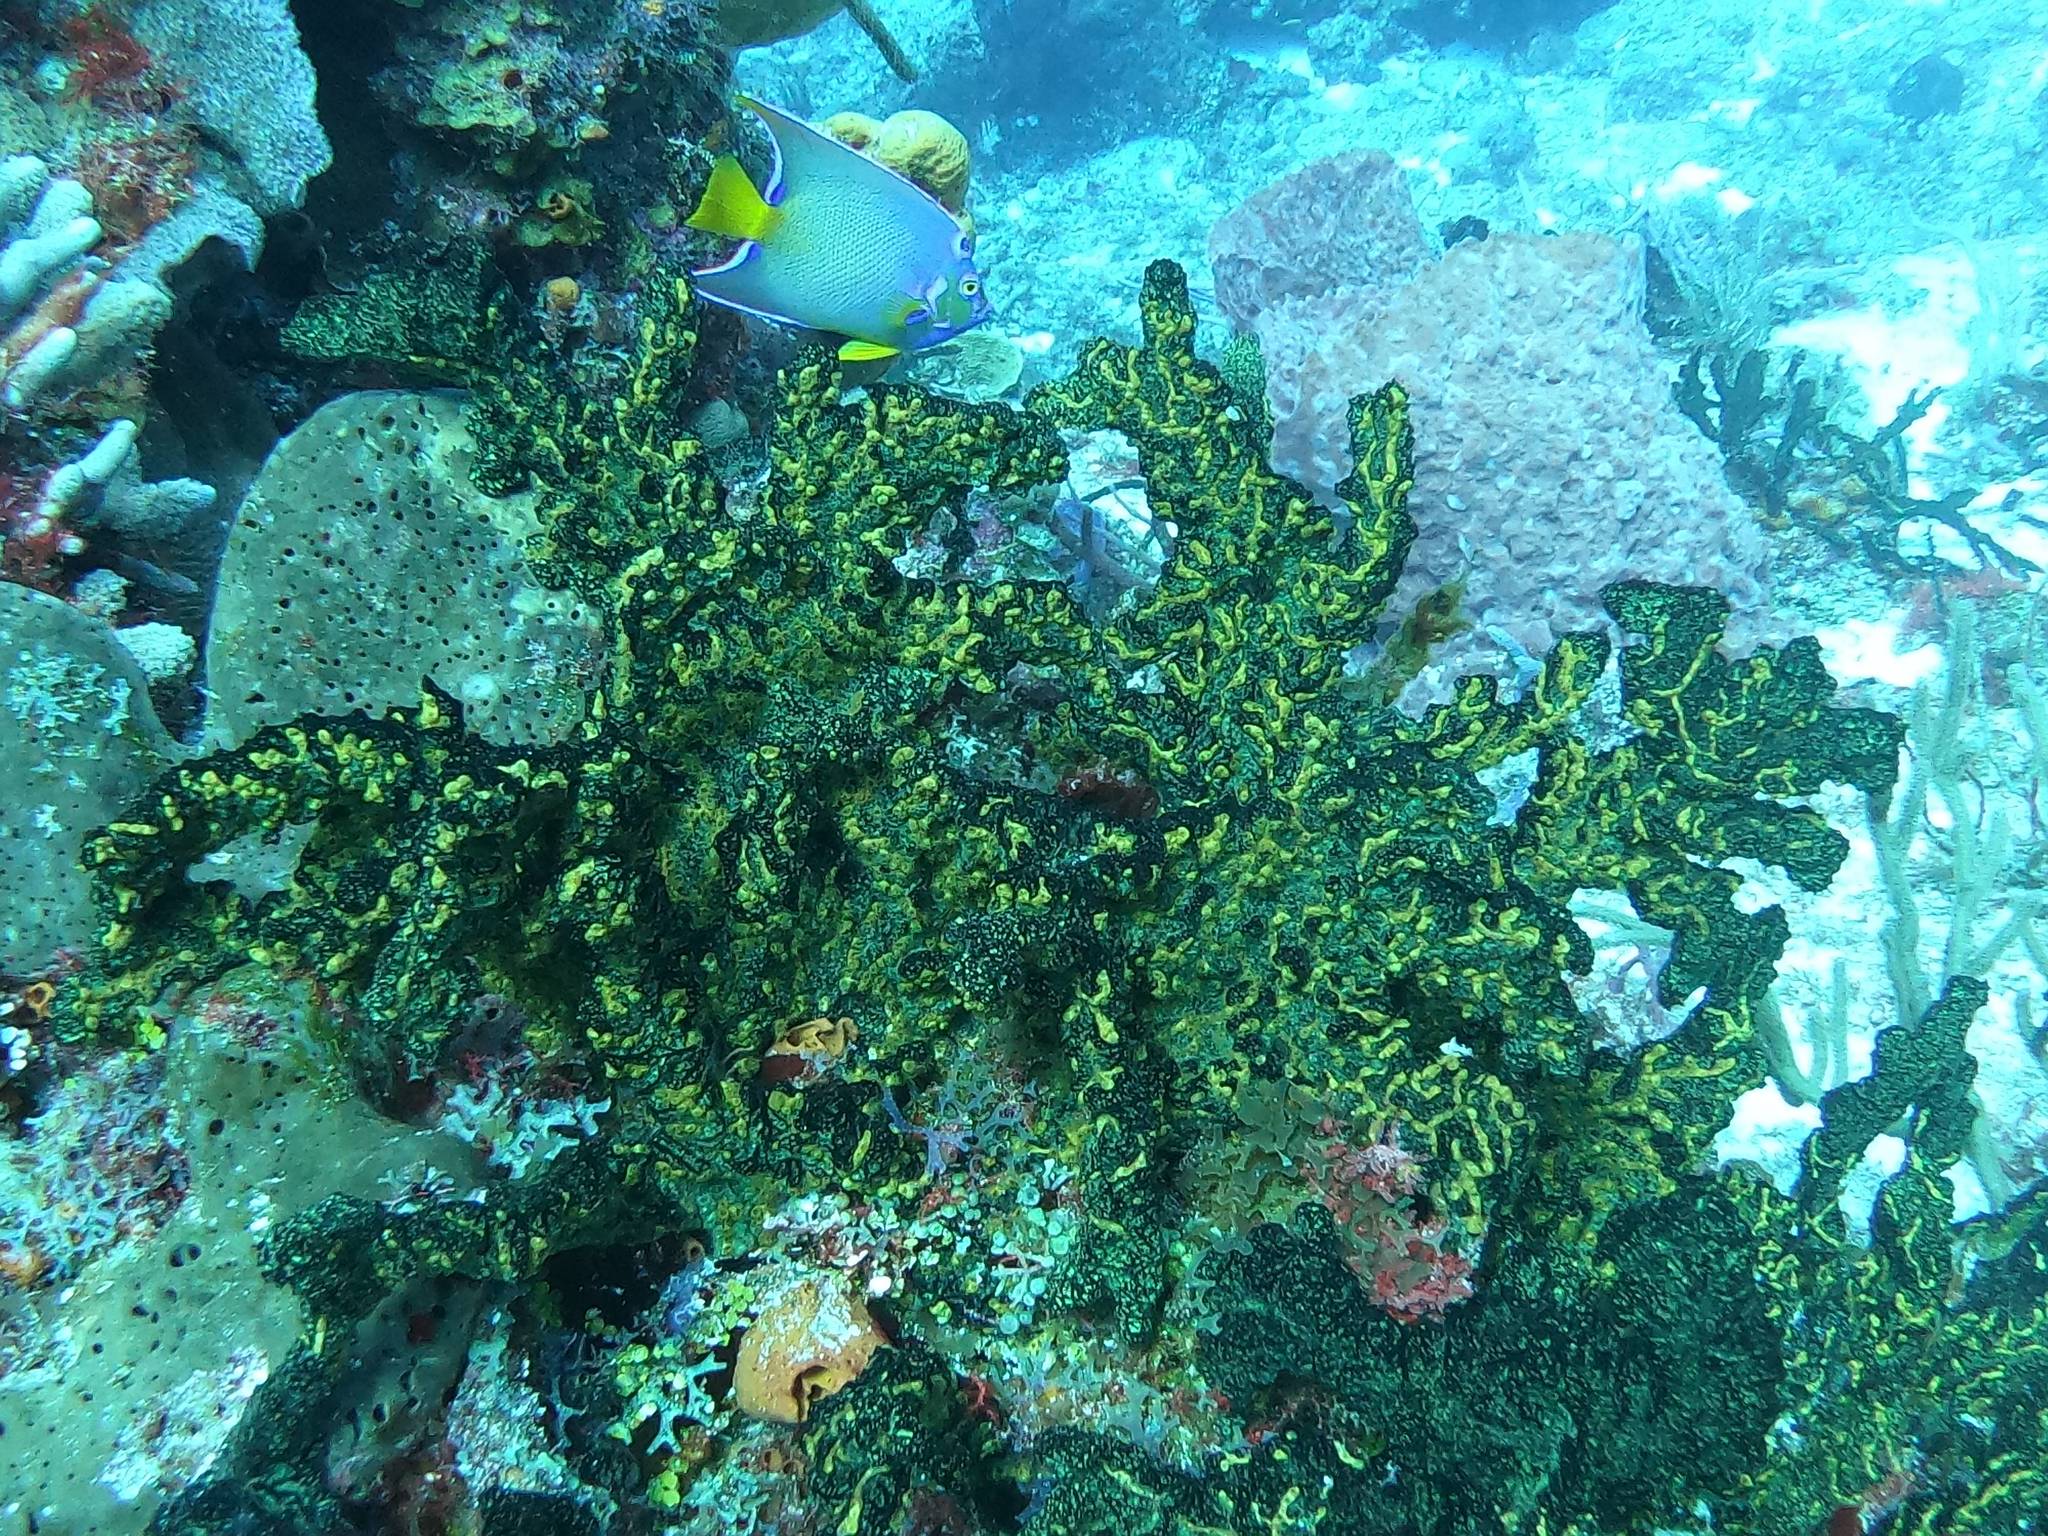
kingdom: Animalia
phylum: Cnidaria
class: Anthozoa
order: Zoantharia
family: Parazoanthidae
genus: Parazoanthus
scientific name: Parazoanthus swiftii
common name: Golden zoanthid
